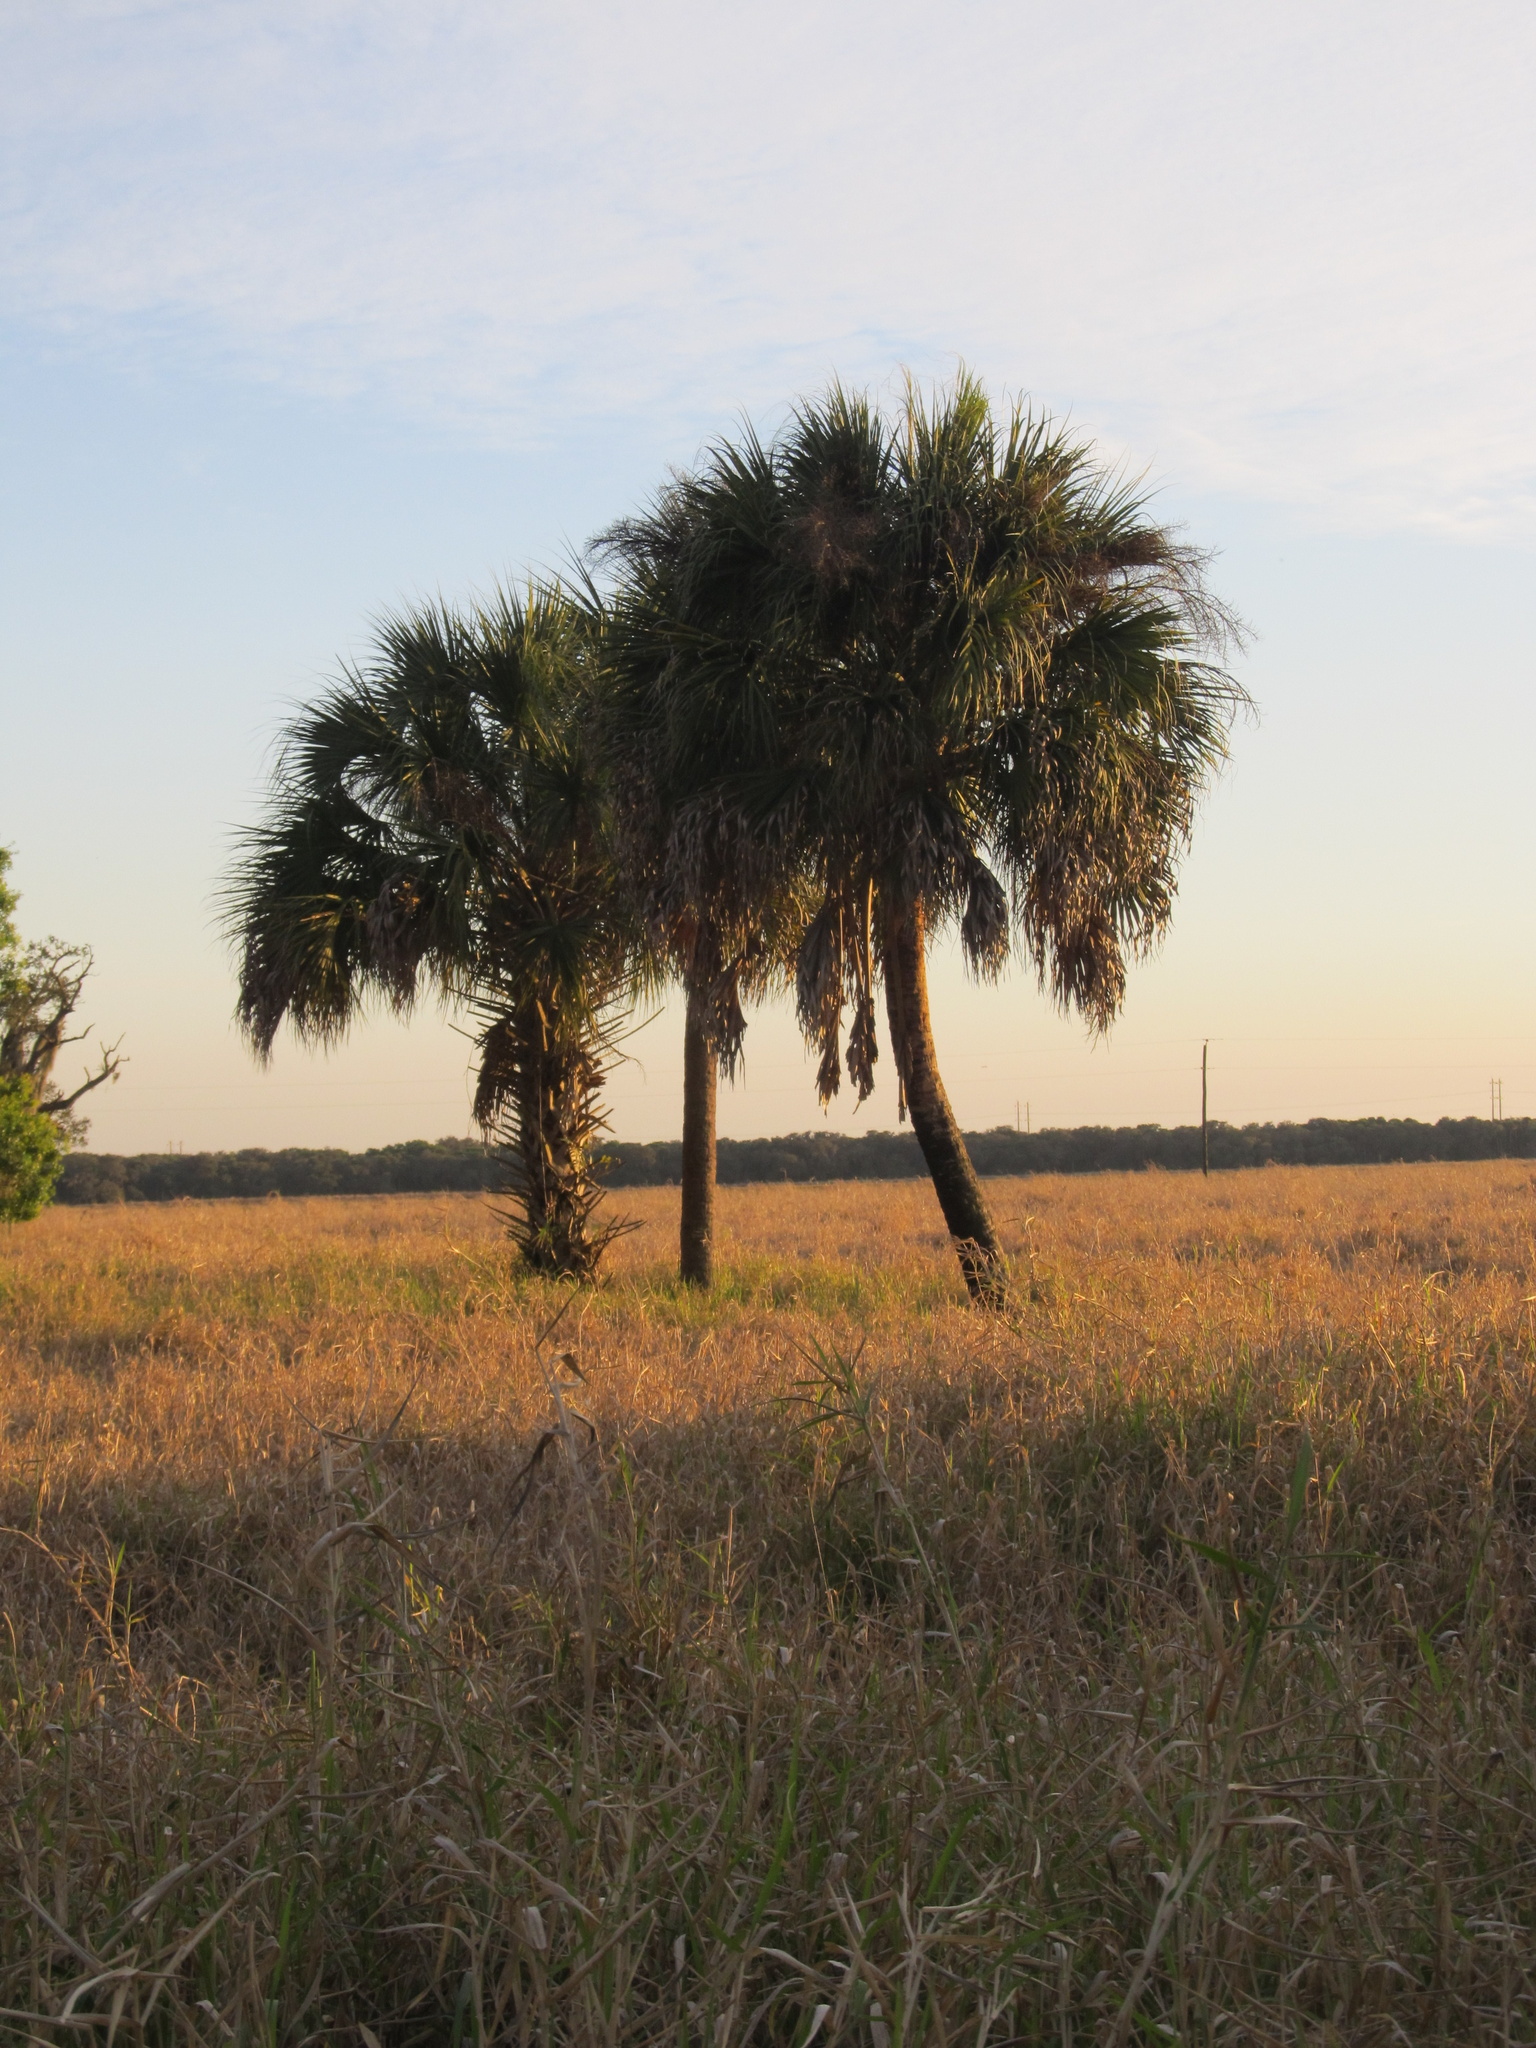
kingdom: Plantae
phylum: Tracheophyta
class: Liliopsida
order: Arecales
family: Arecaceae
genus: Sabal
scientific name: Sabal palmetto
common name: Blue palmetto
